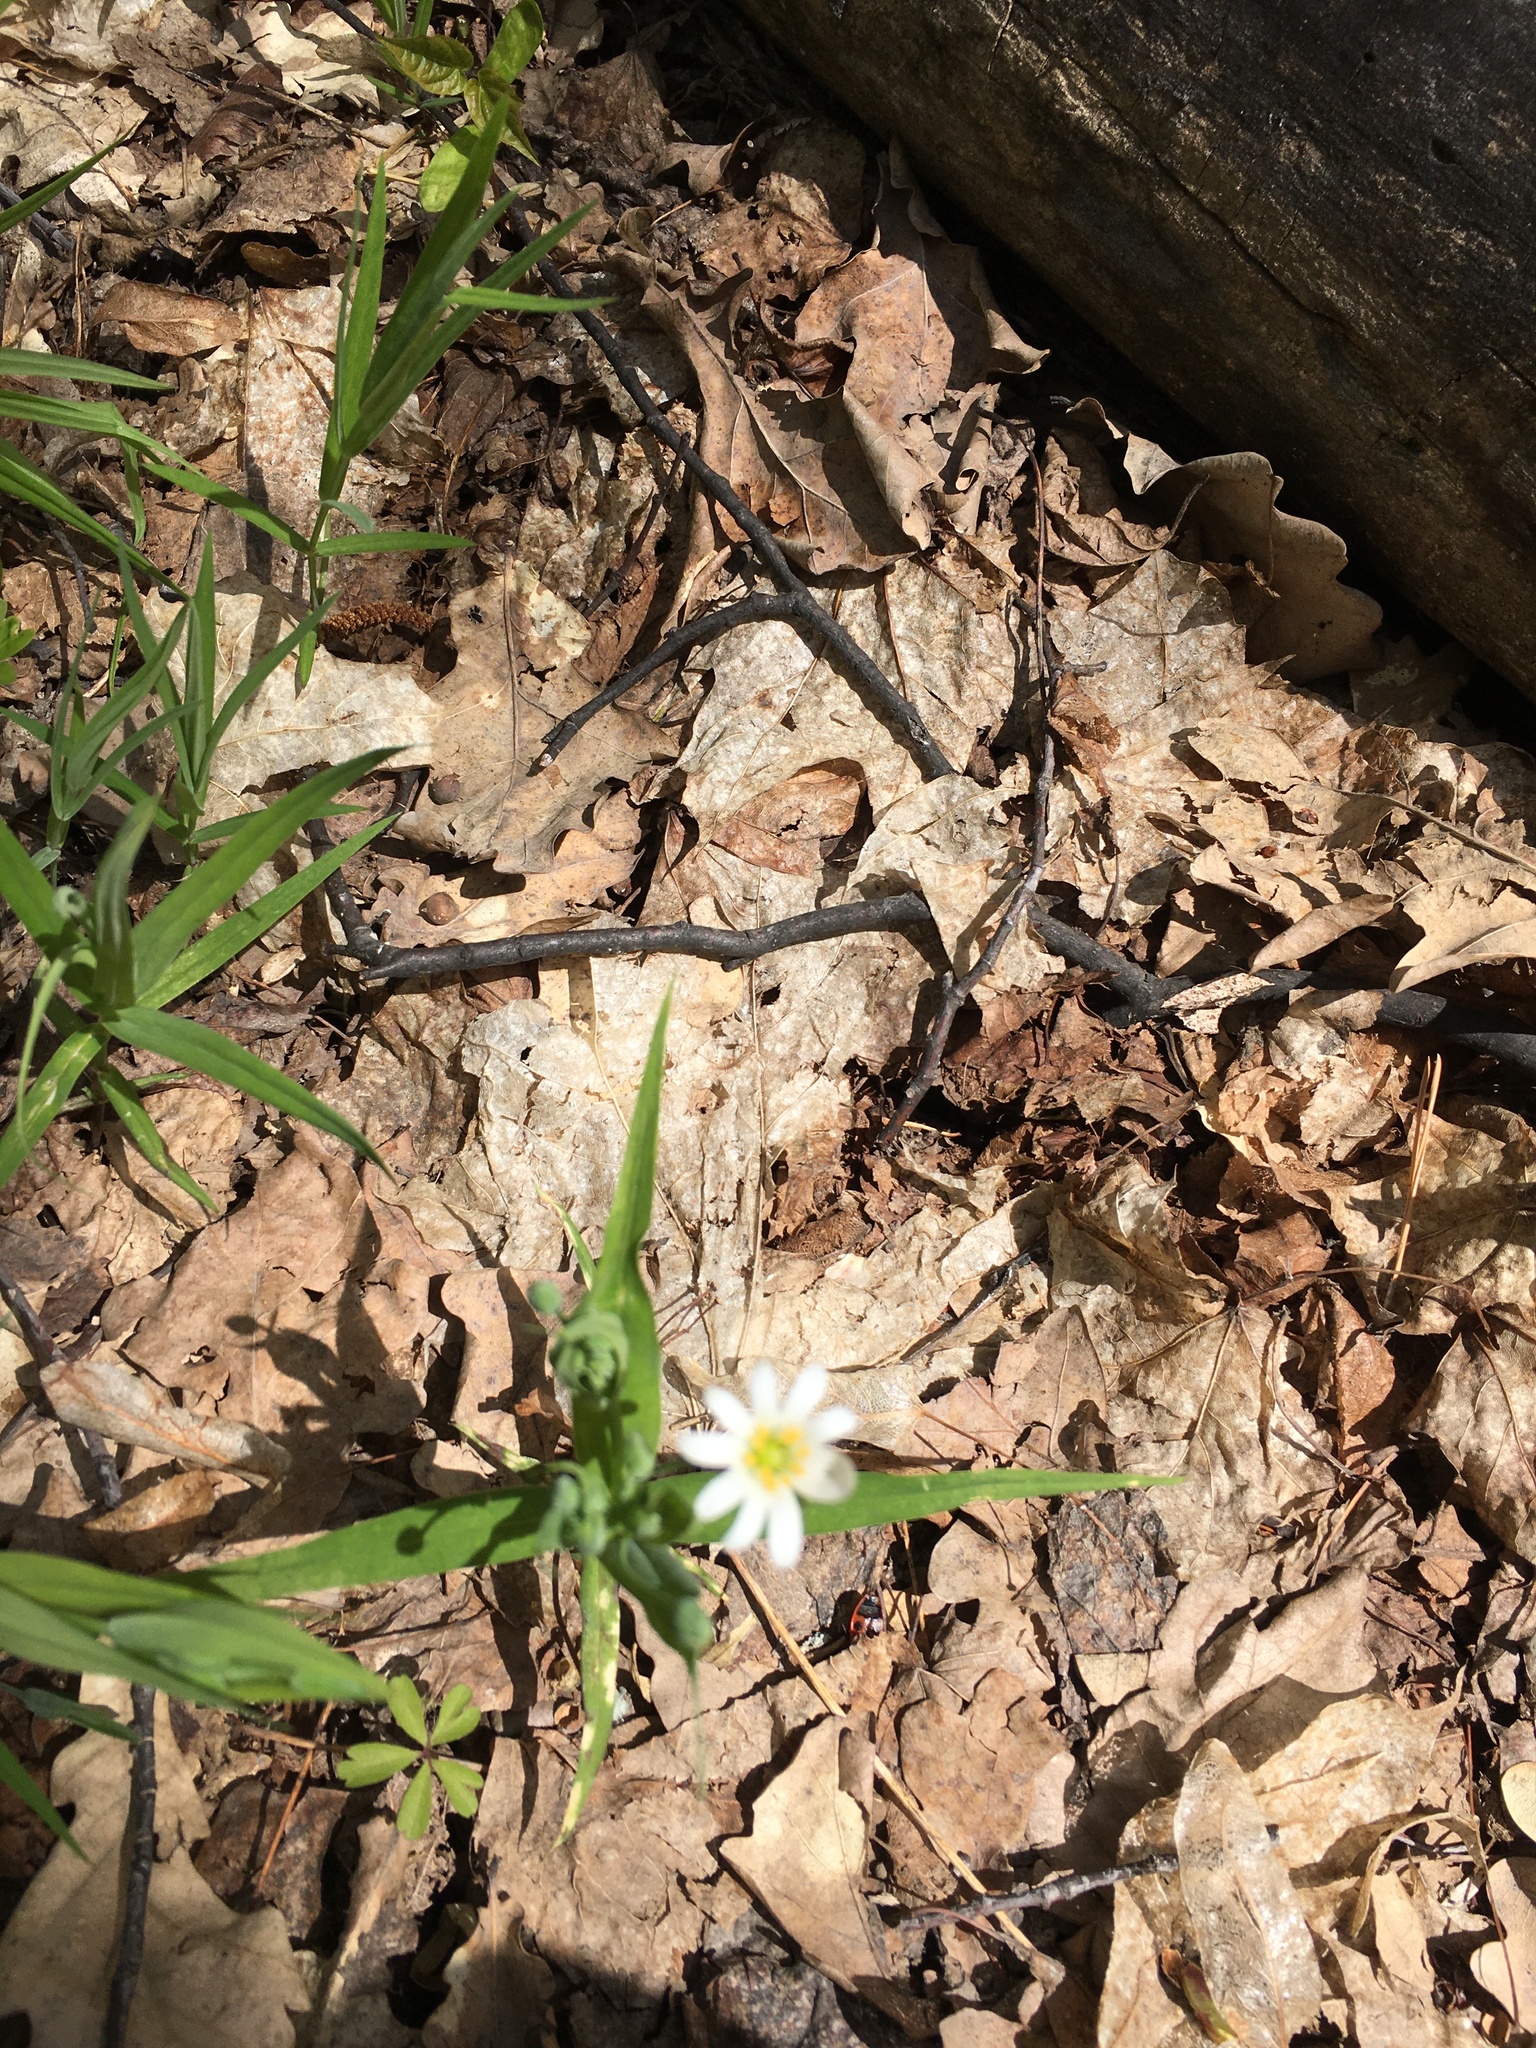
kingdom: Plantae
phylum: Tracheophyta
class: Magnoliopsida
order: Caryophyllales
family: Caryophyllaceae
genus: Rabelera
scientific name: Rabelera holostea
